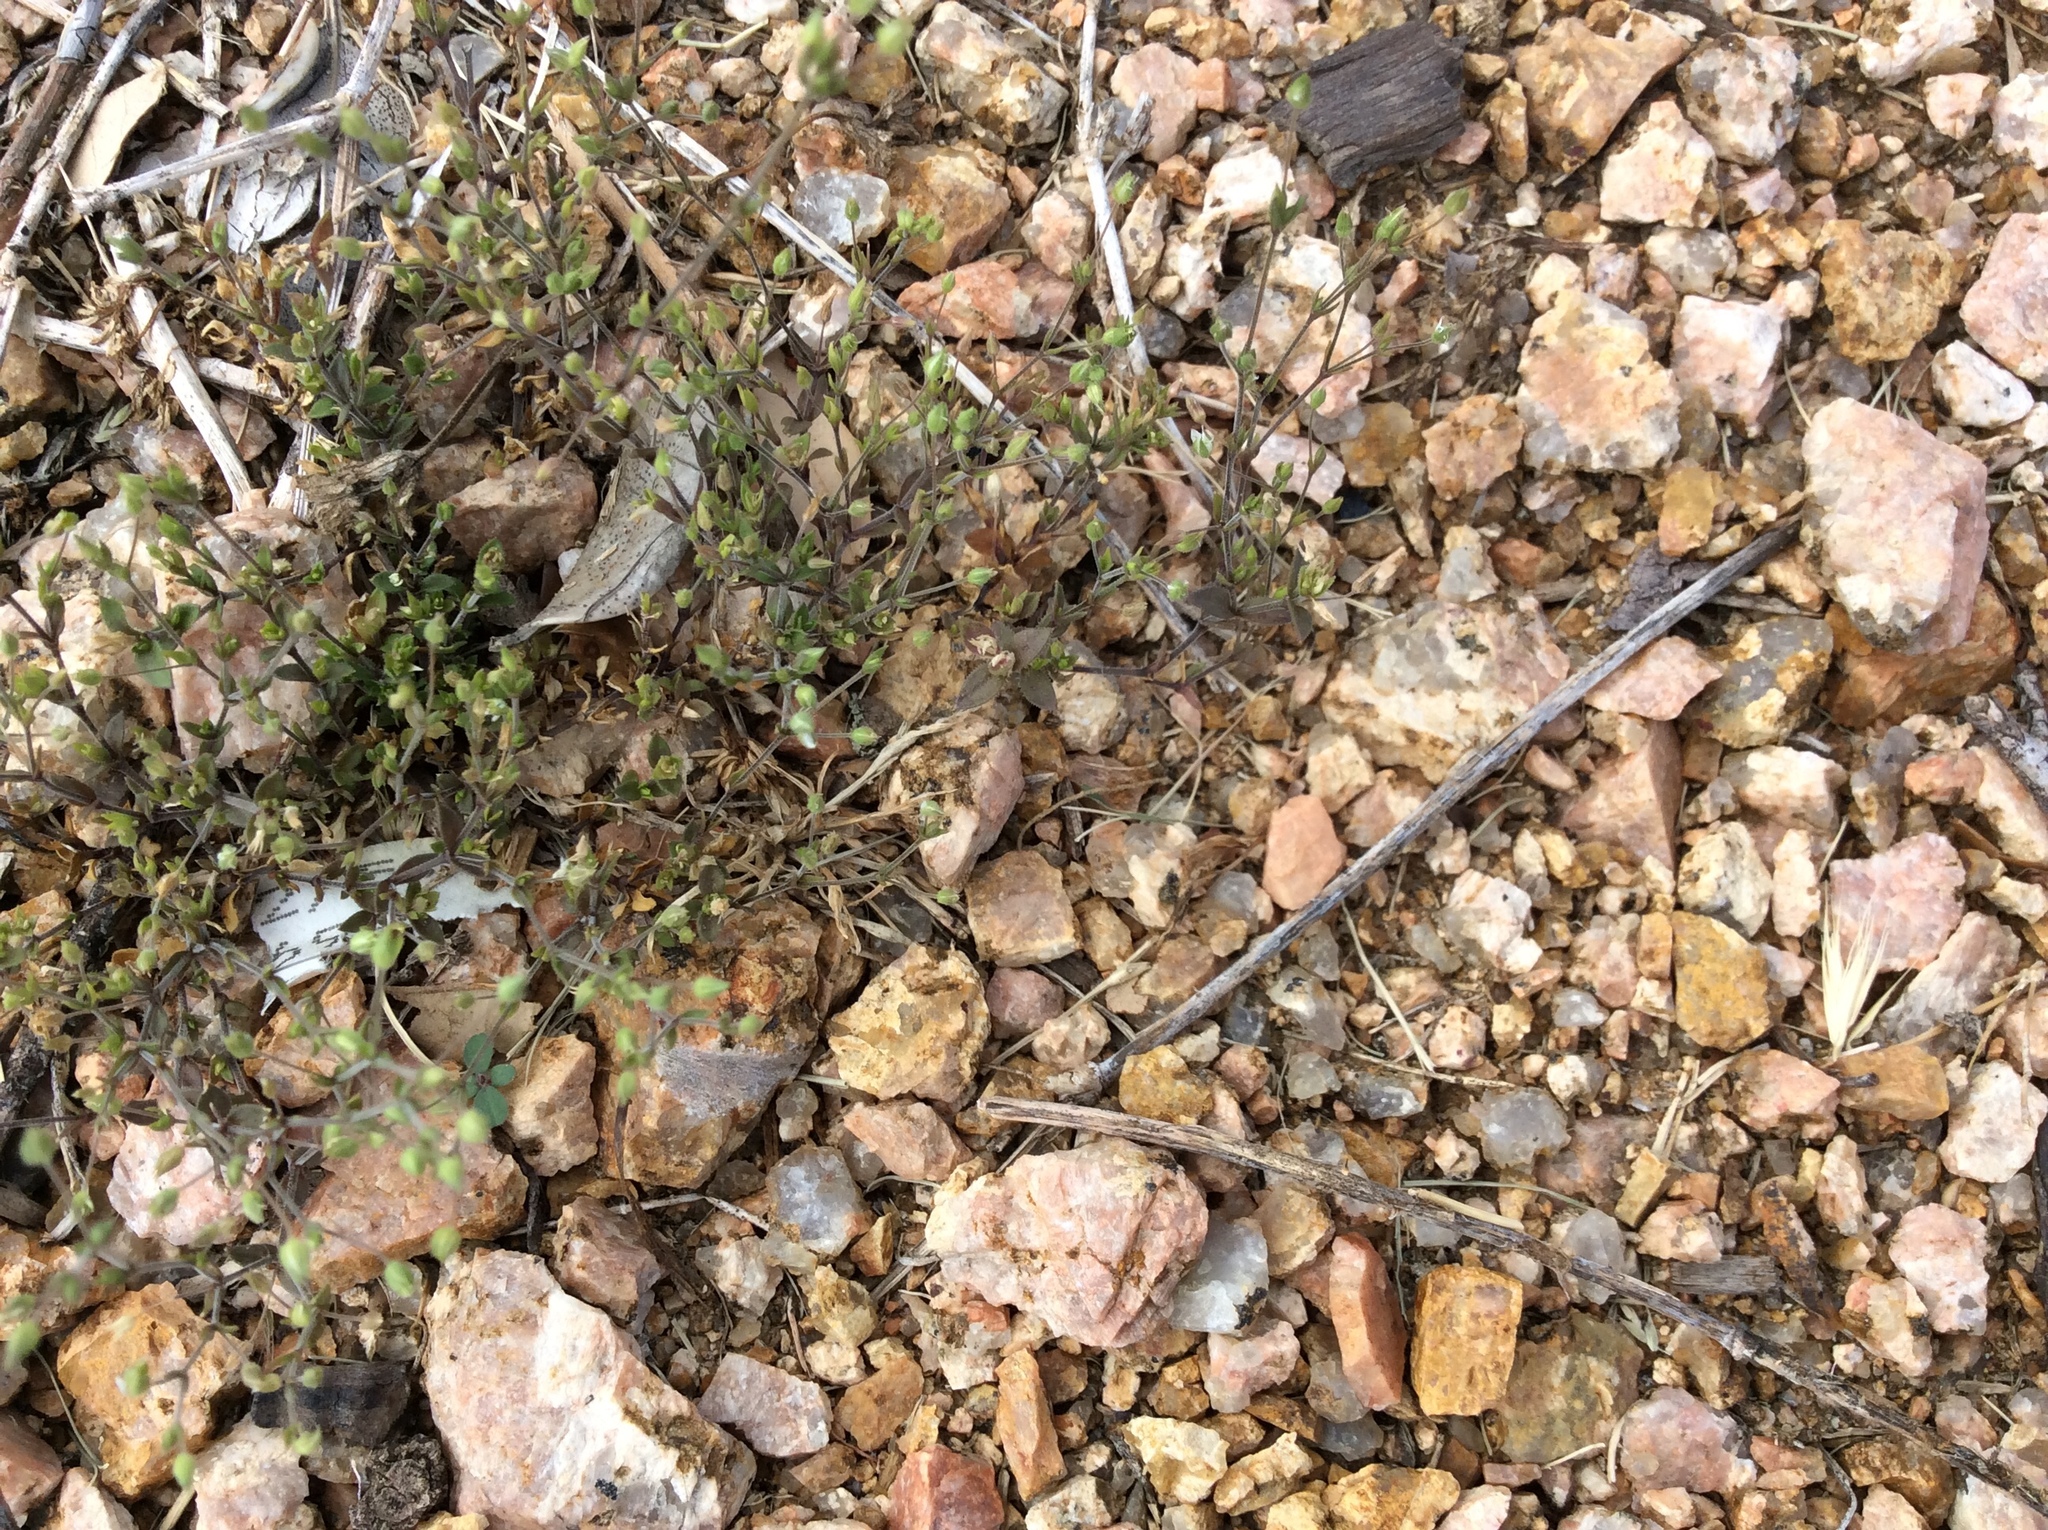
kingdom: Plantae
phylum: Tracheophyta
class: Magnoliopsida
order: Caryophyllales
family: Caryophyllaceae
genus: Arenaria
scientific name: Arenaria serpyllifolia
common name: Thyme-leaved sandwort
